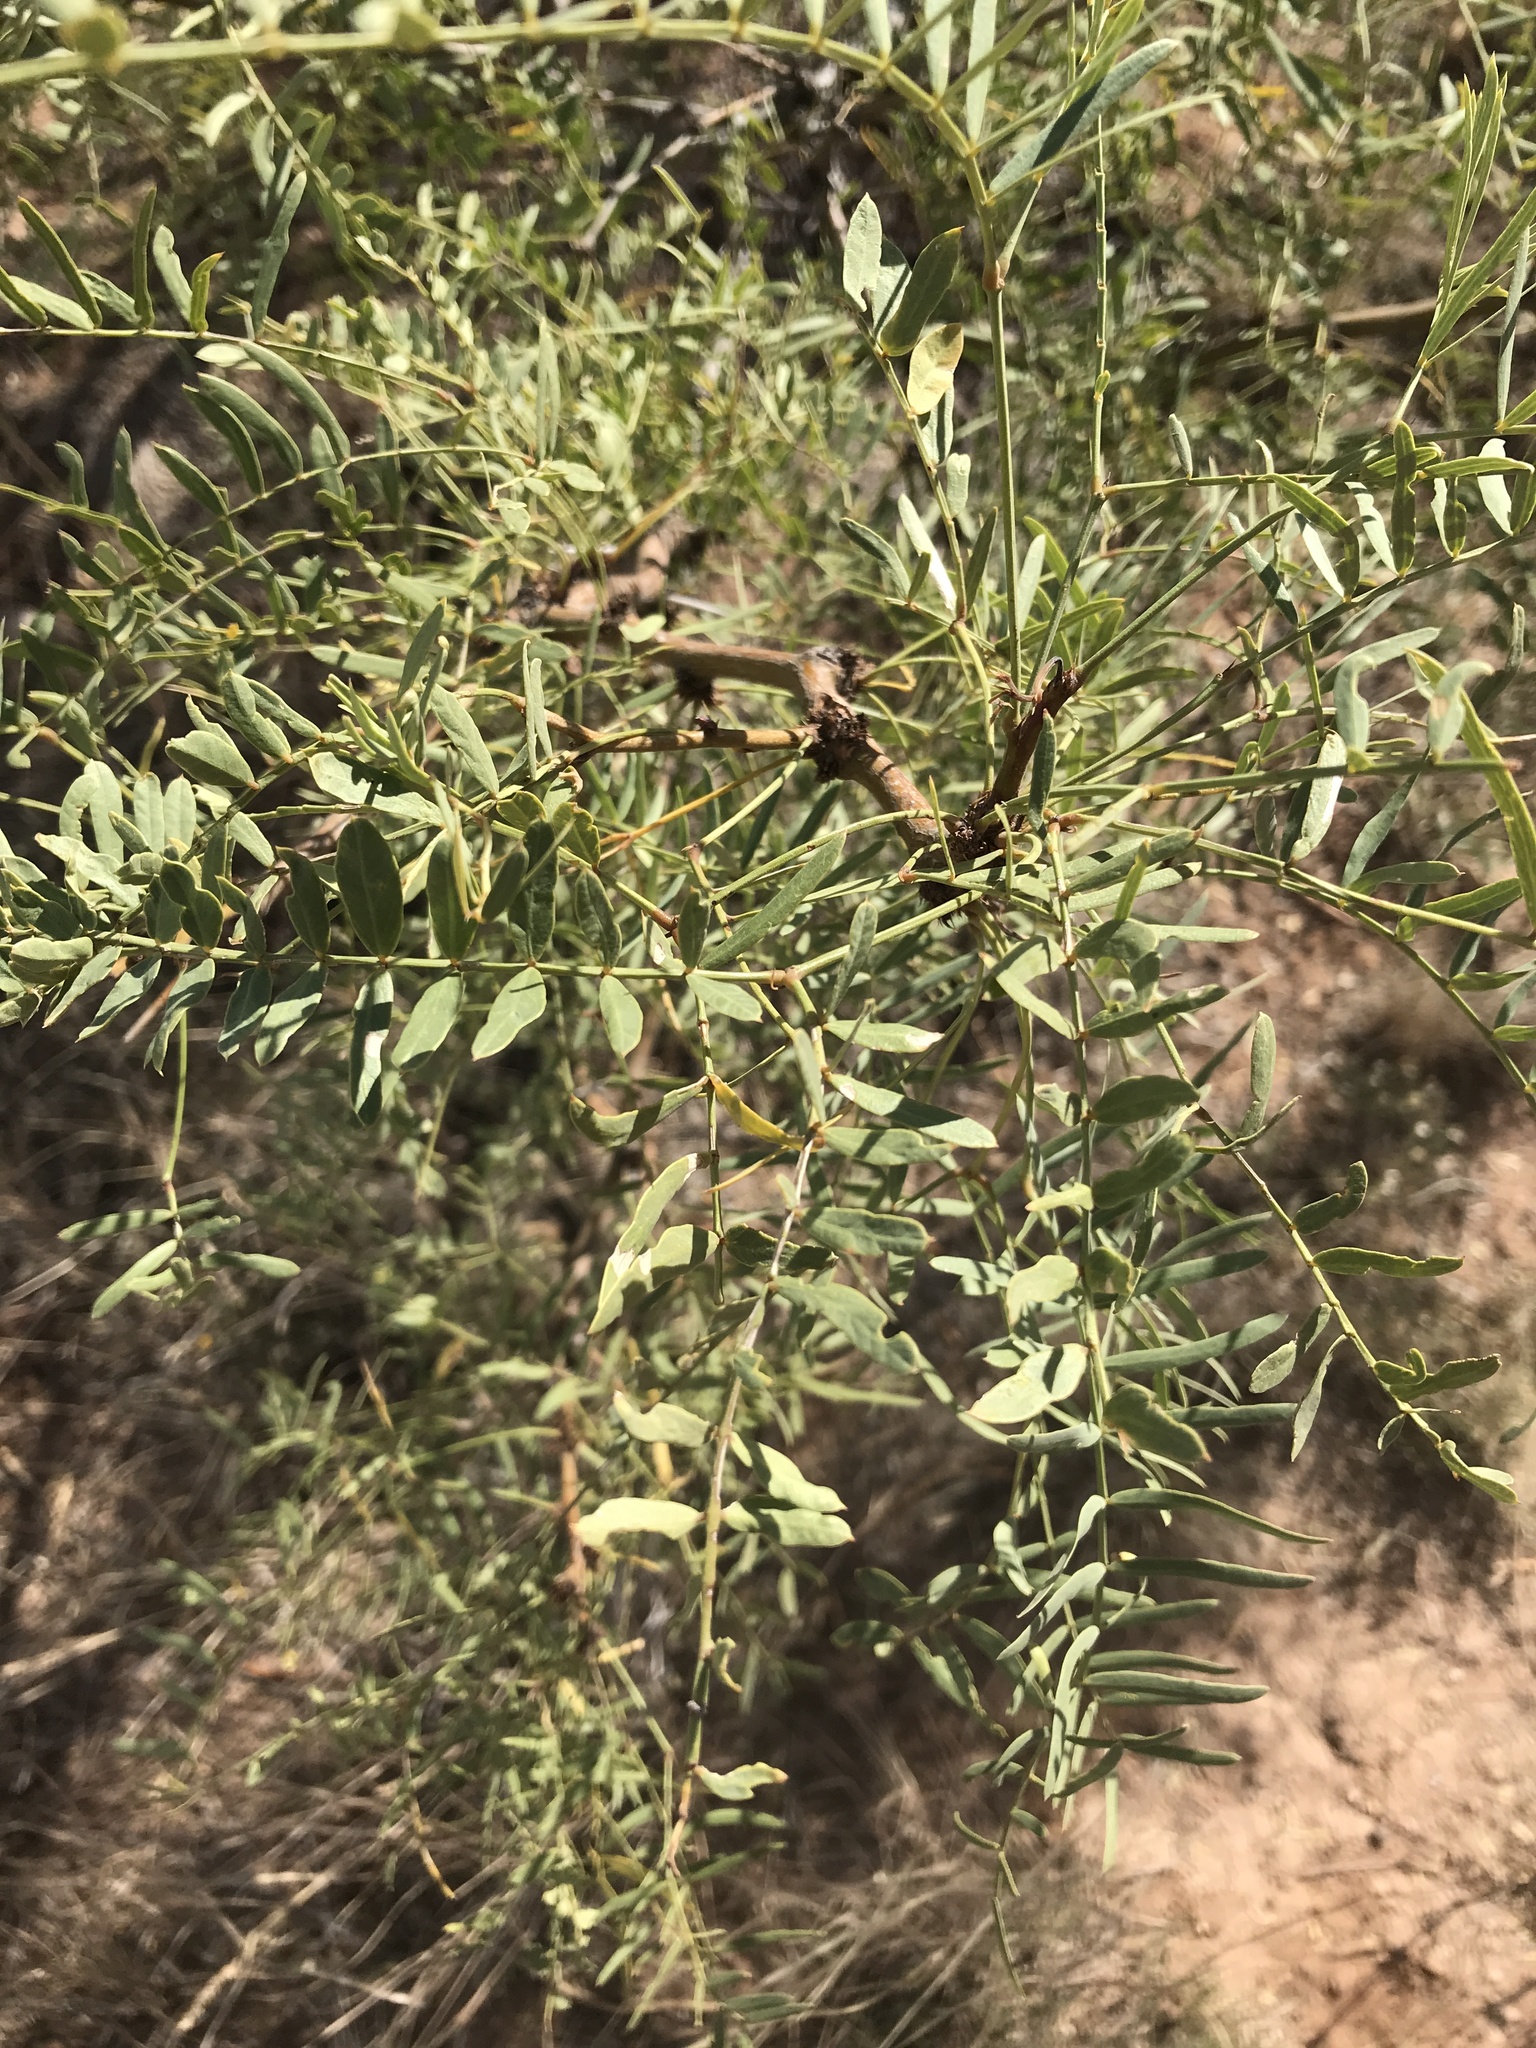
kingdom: Plantae
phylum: Tracheophyta
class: Magnoliopsida
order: Fabales
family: Fabaceae
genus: Prosopis
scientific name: Prosopis glandulosa
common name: Honey mesquite
